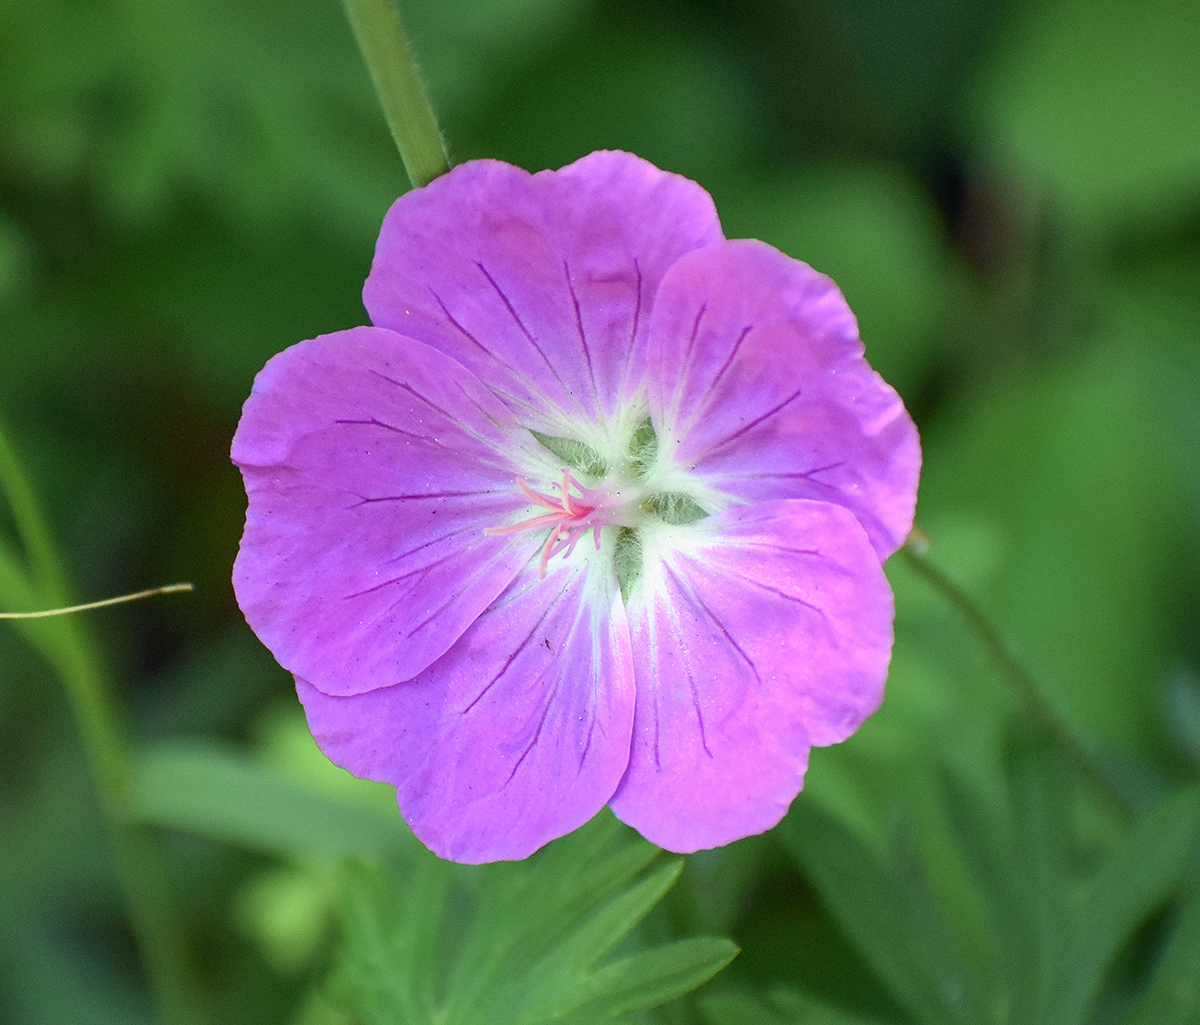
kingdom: Plantae
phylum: Tracheophyta
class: Magnoliopsida
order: Geraniales
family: Geraniaceae
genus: Geranium
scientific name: Geranium sanguineum
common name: Bloody crane's-bill
